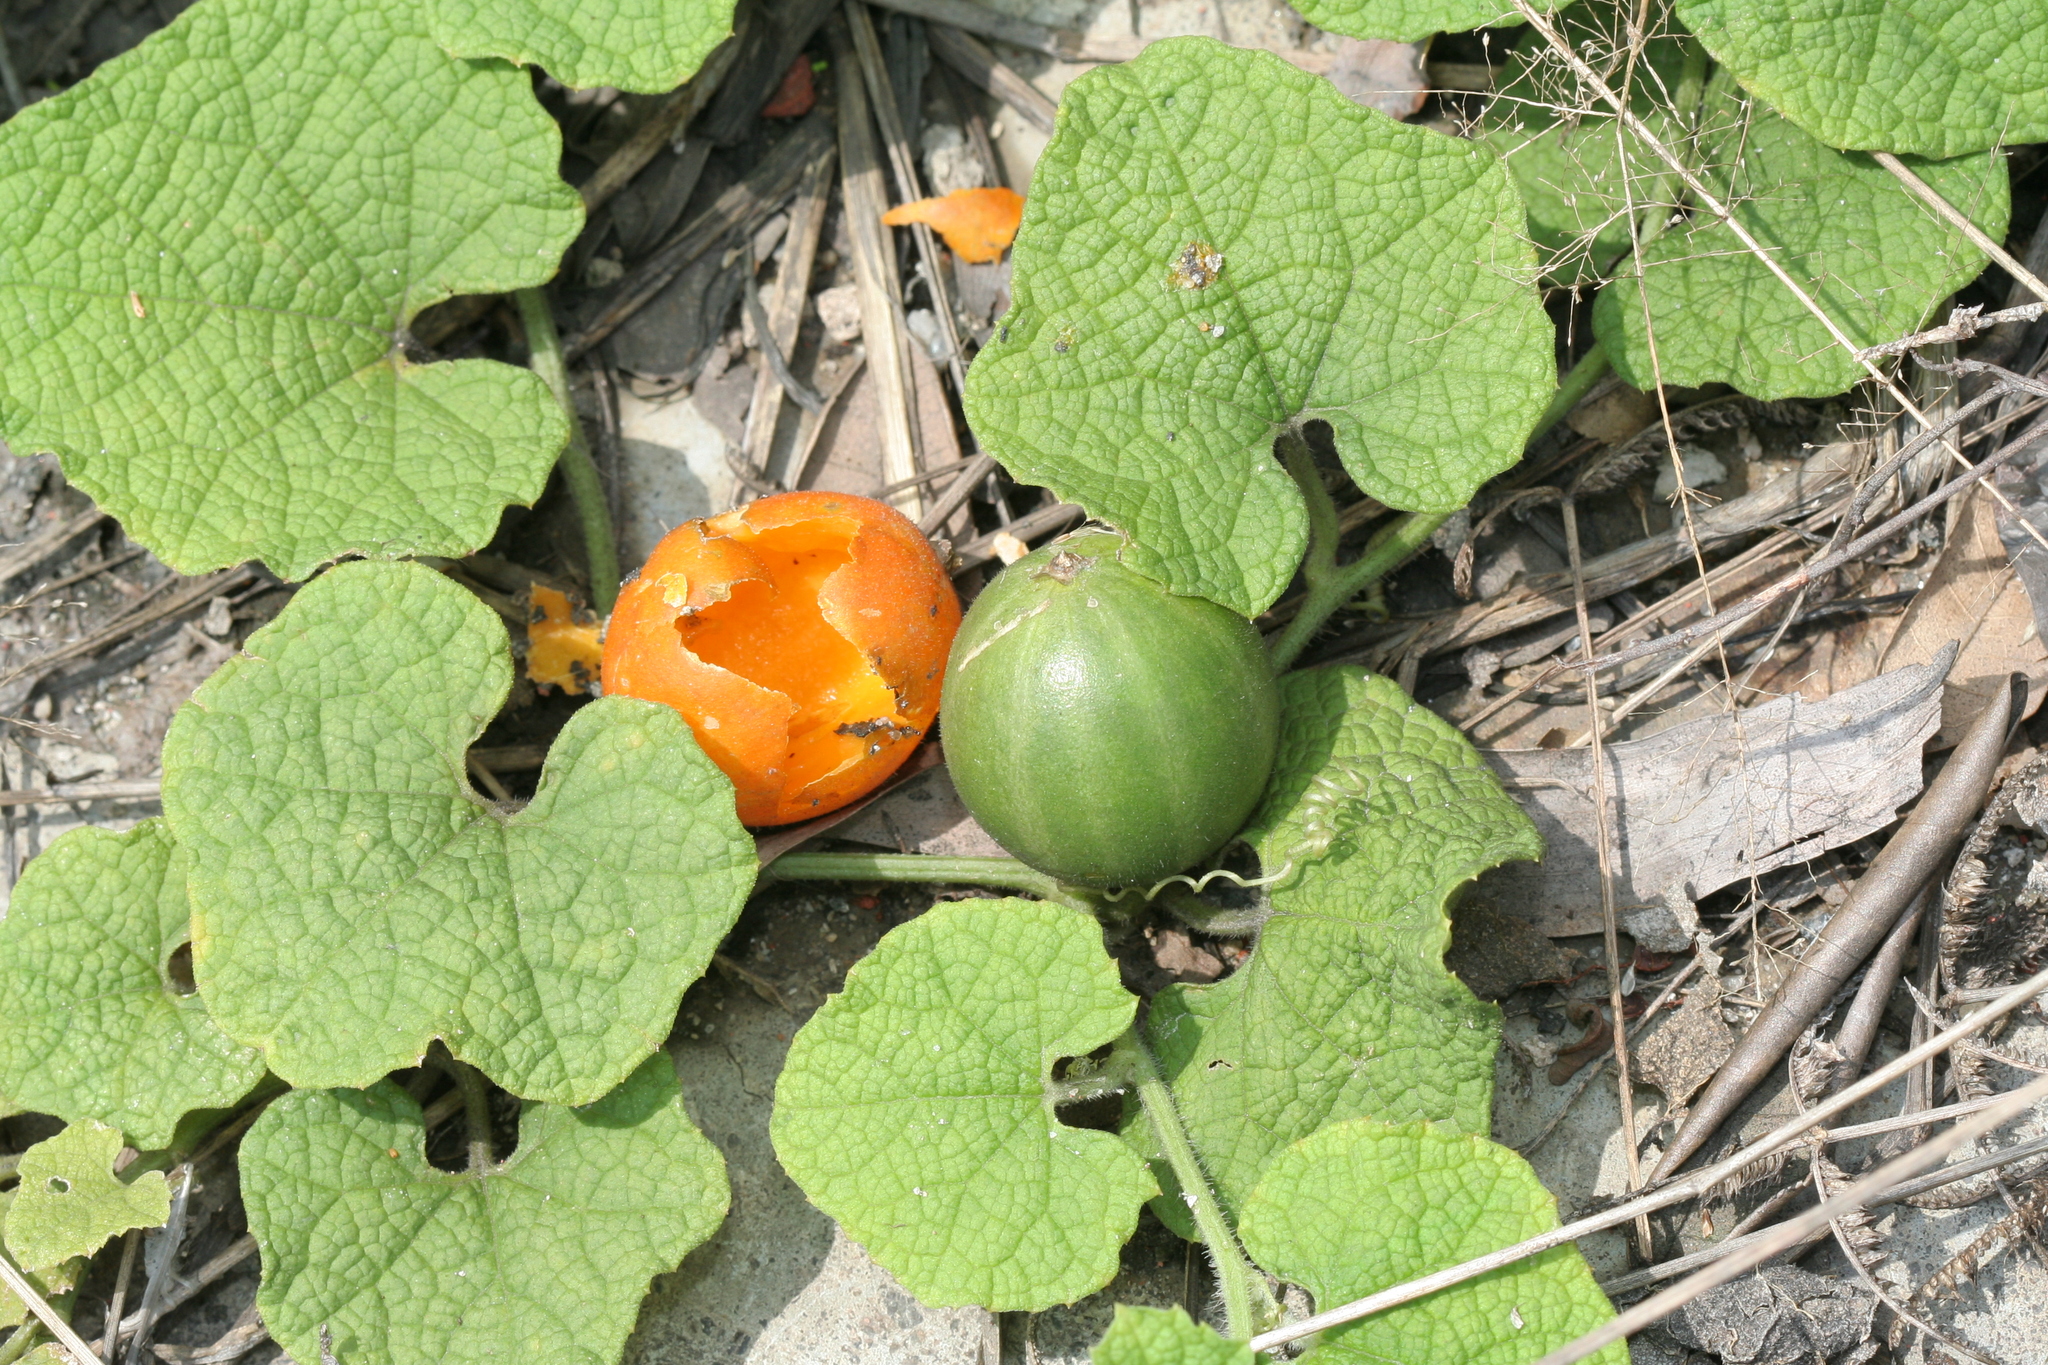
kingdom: Plantae
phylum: Tracheophyta
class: Magnoliopsida
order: Cucurbitales
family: Cucurbitaceae
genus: Trichosanthes
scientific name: Trichosanthes scabra
